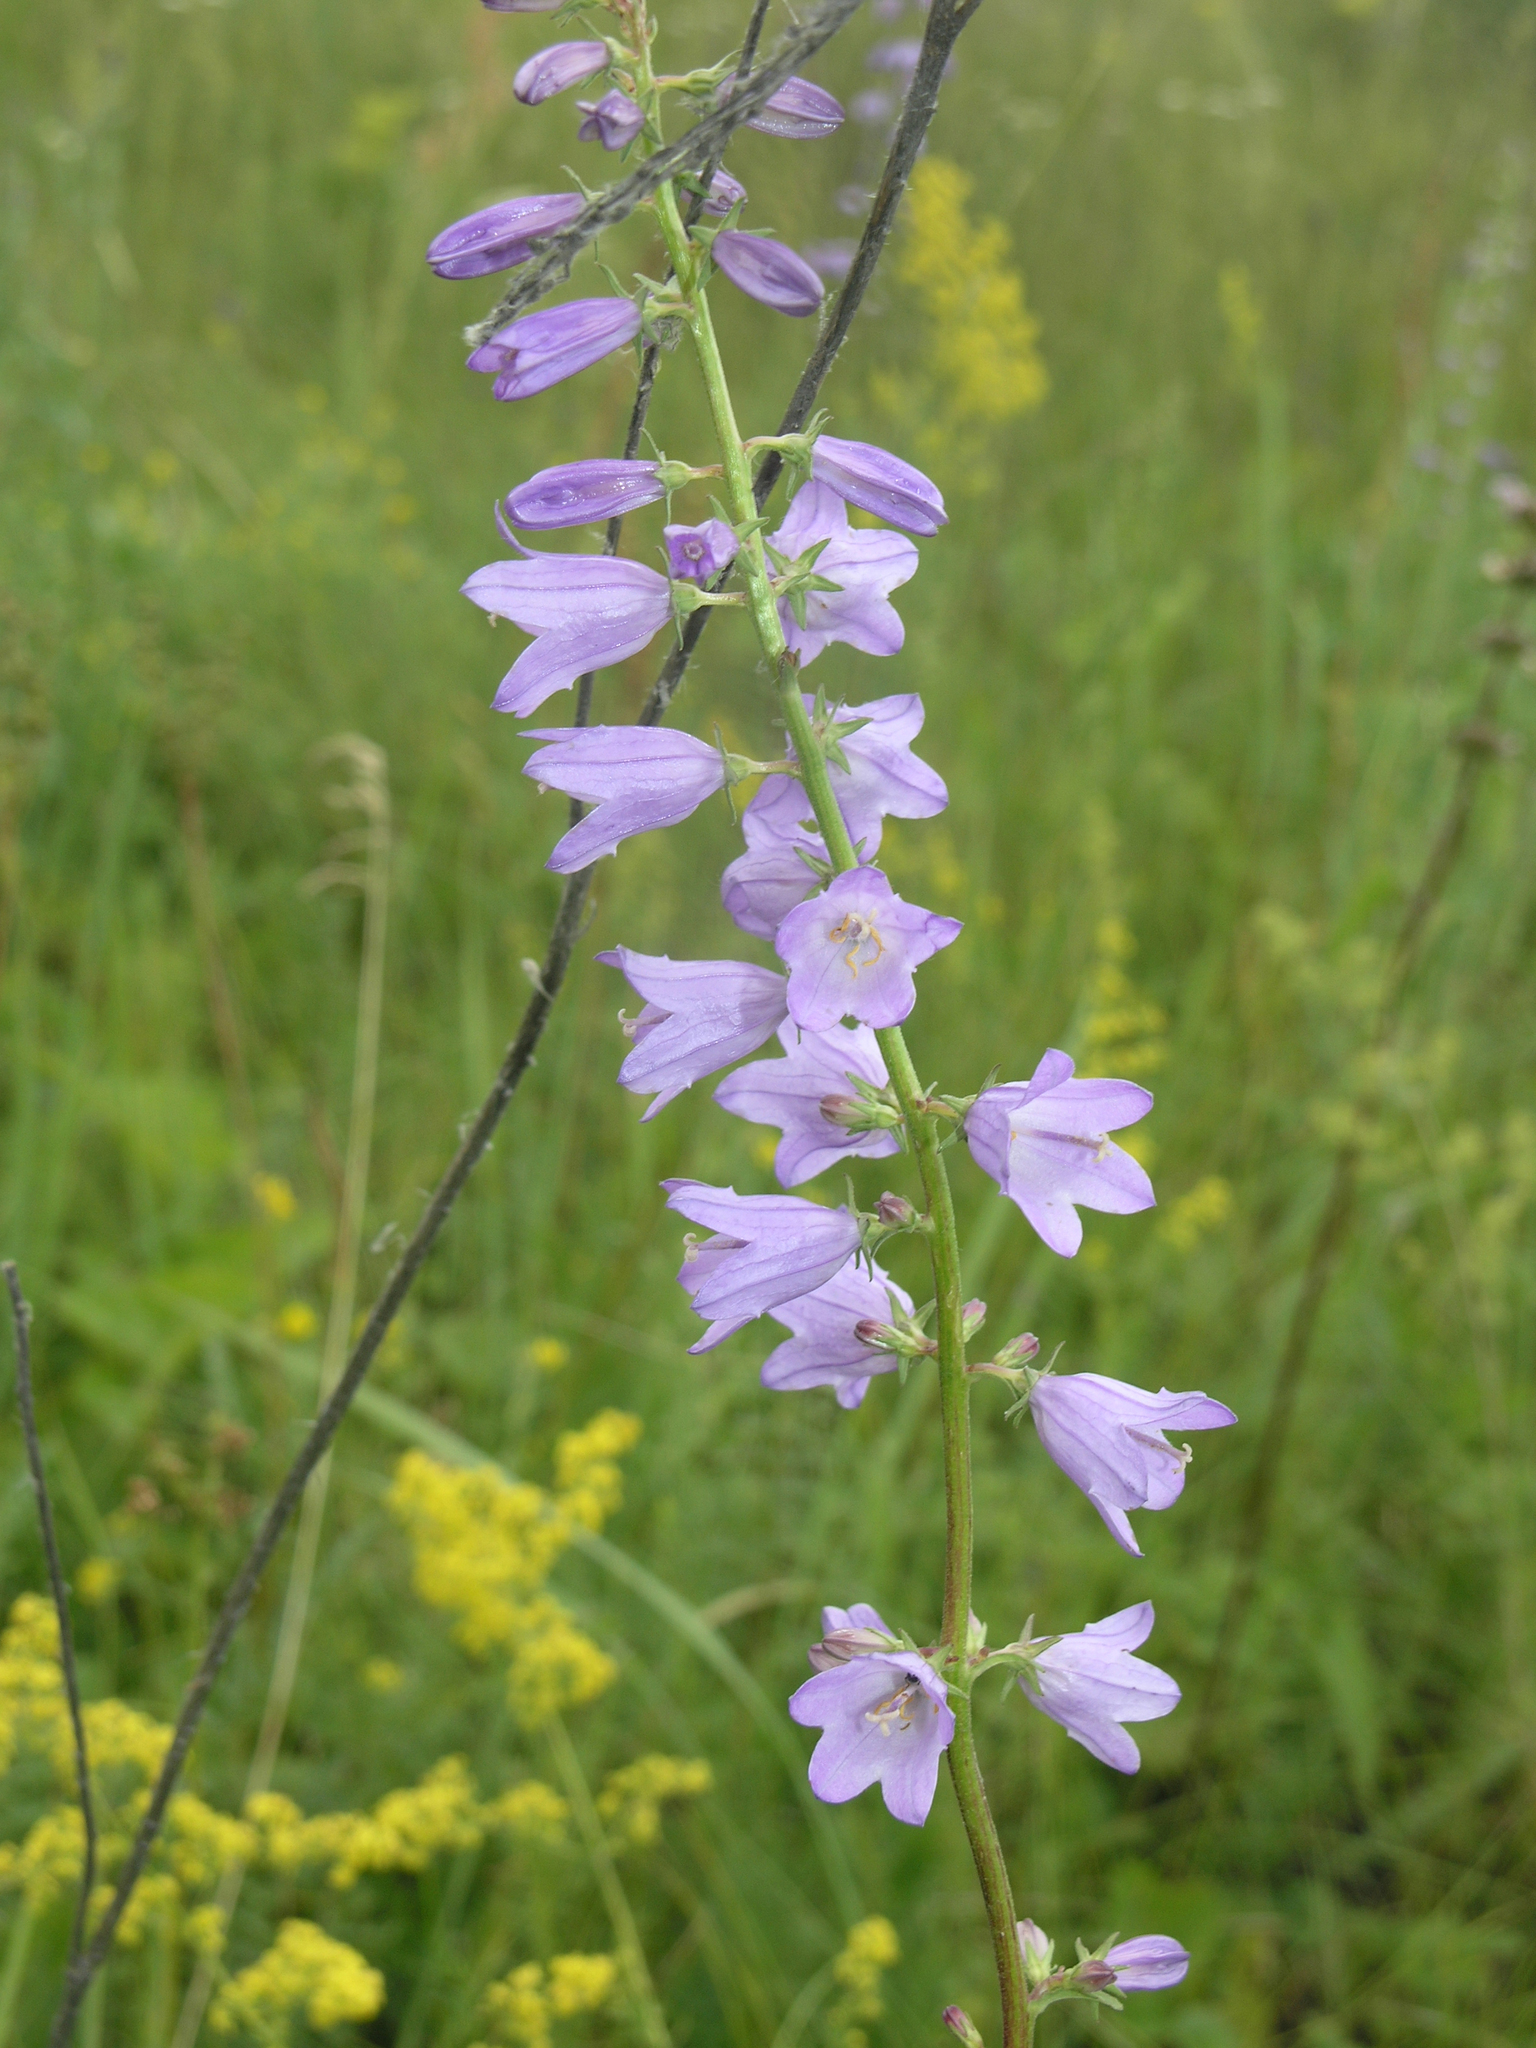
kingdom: Plantae
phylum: Tracheophyta
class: Magnoliopsida
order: Asterales
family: Campanulaceae
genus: Campanula
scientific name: Campanula bononiensis
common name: Pale bellflower
